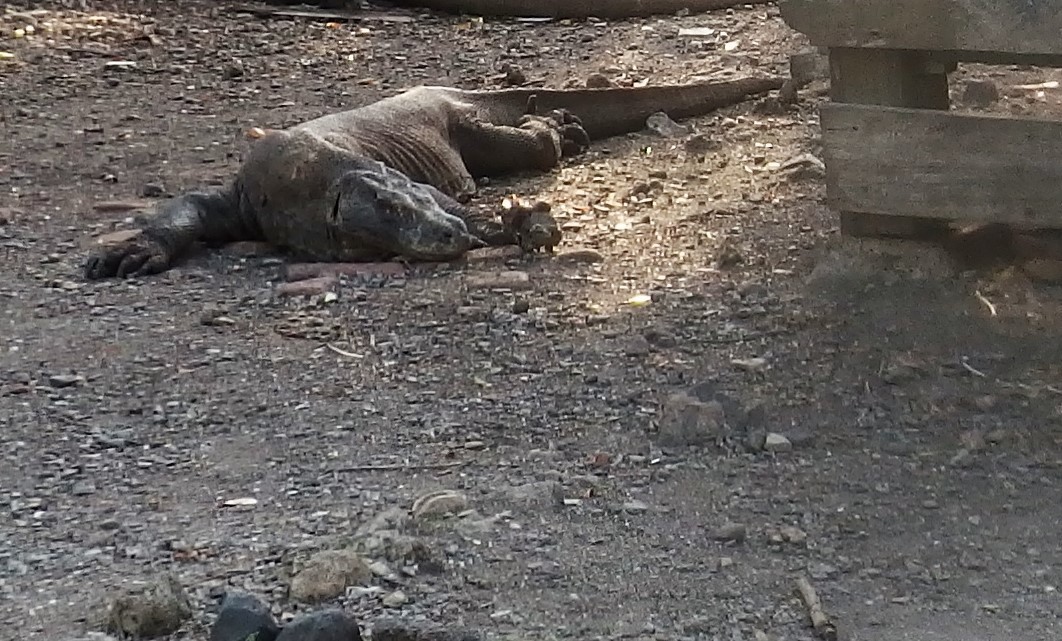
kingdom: Animalia
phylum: Chordata
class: Squamata
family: Varanidae
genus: Varanus
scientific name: Varanus komodoensis
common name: Komodo dragon
